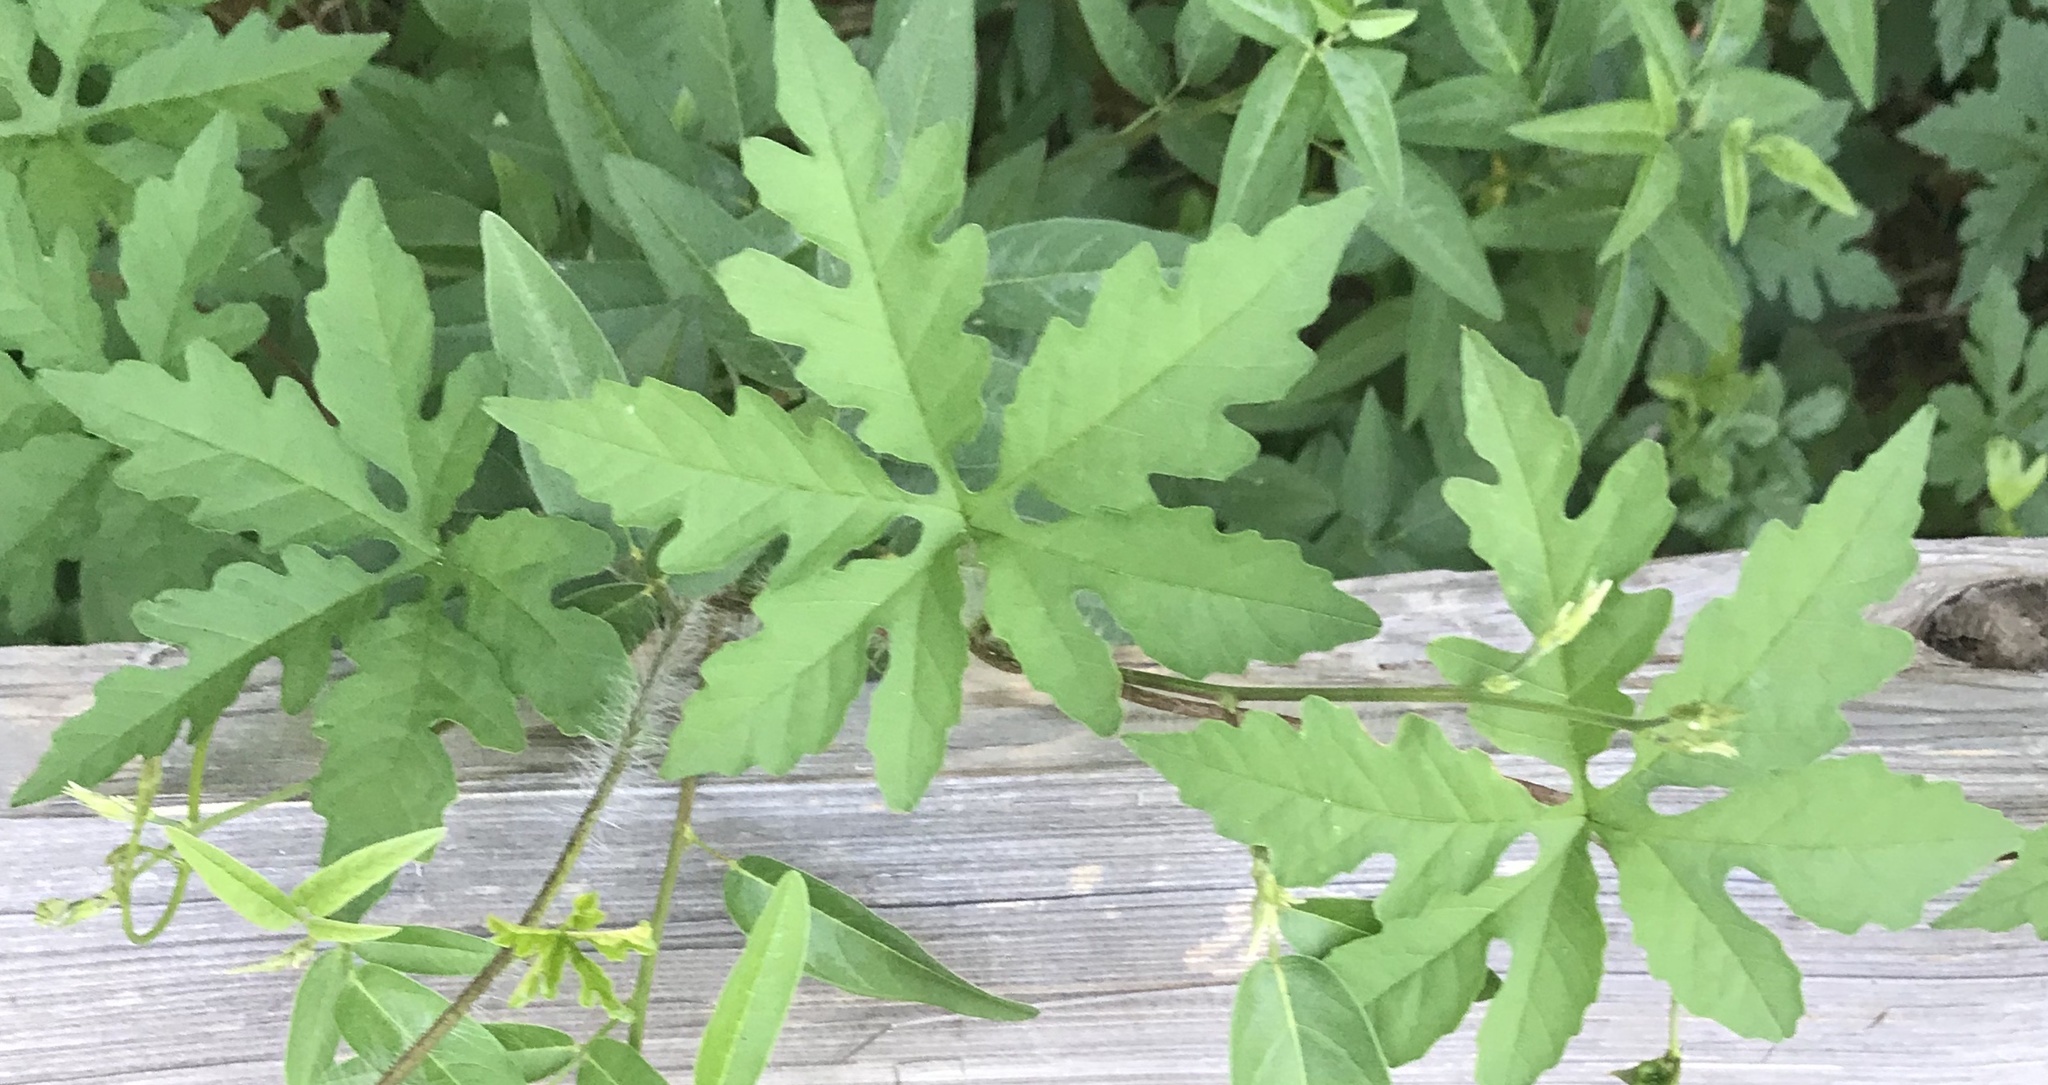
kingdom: Plantae
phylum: Tracheophyta
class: Magnoliopsida
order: Solanales
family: Convolvulaceae
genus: Distimake
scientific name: Distimake dissectus
